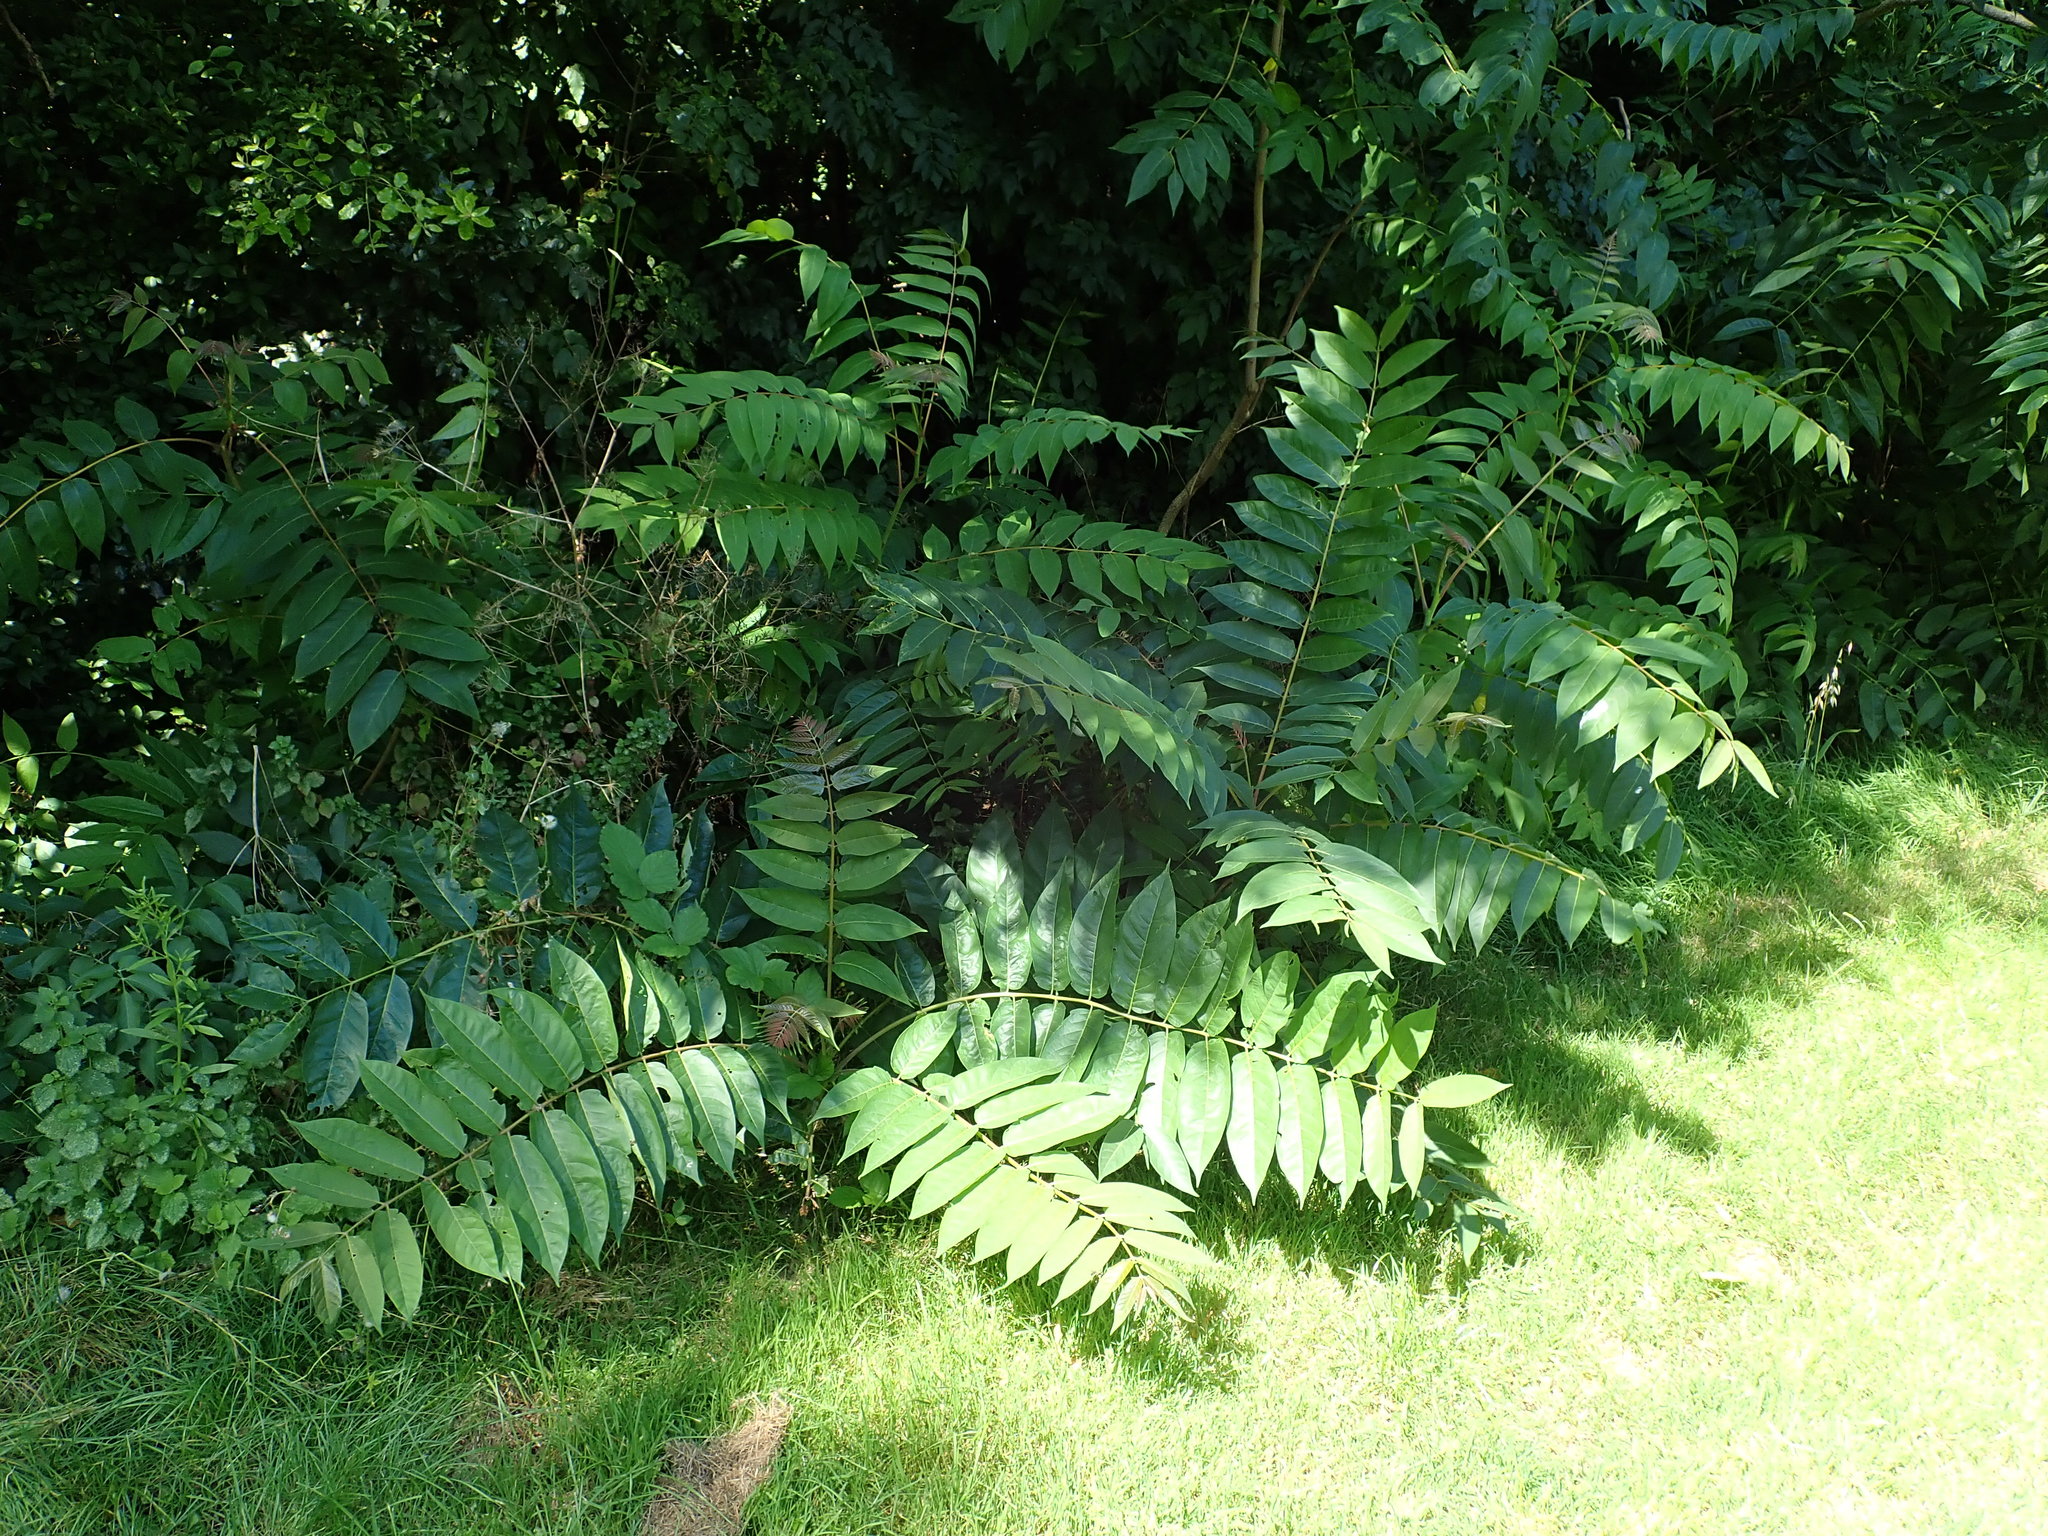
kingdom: Plantae
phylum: Tracheophyta
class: Magnoliopsida
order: Sapindales
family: Simaroubaceae
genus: Ailanthus
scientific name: Ailanthus altissima
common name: Tree-of-heaven
